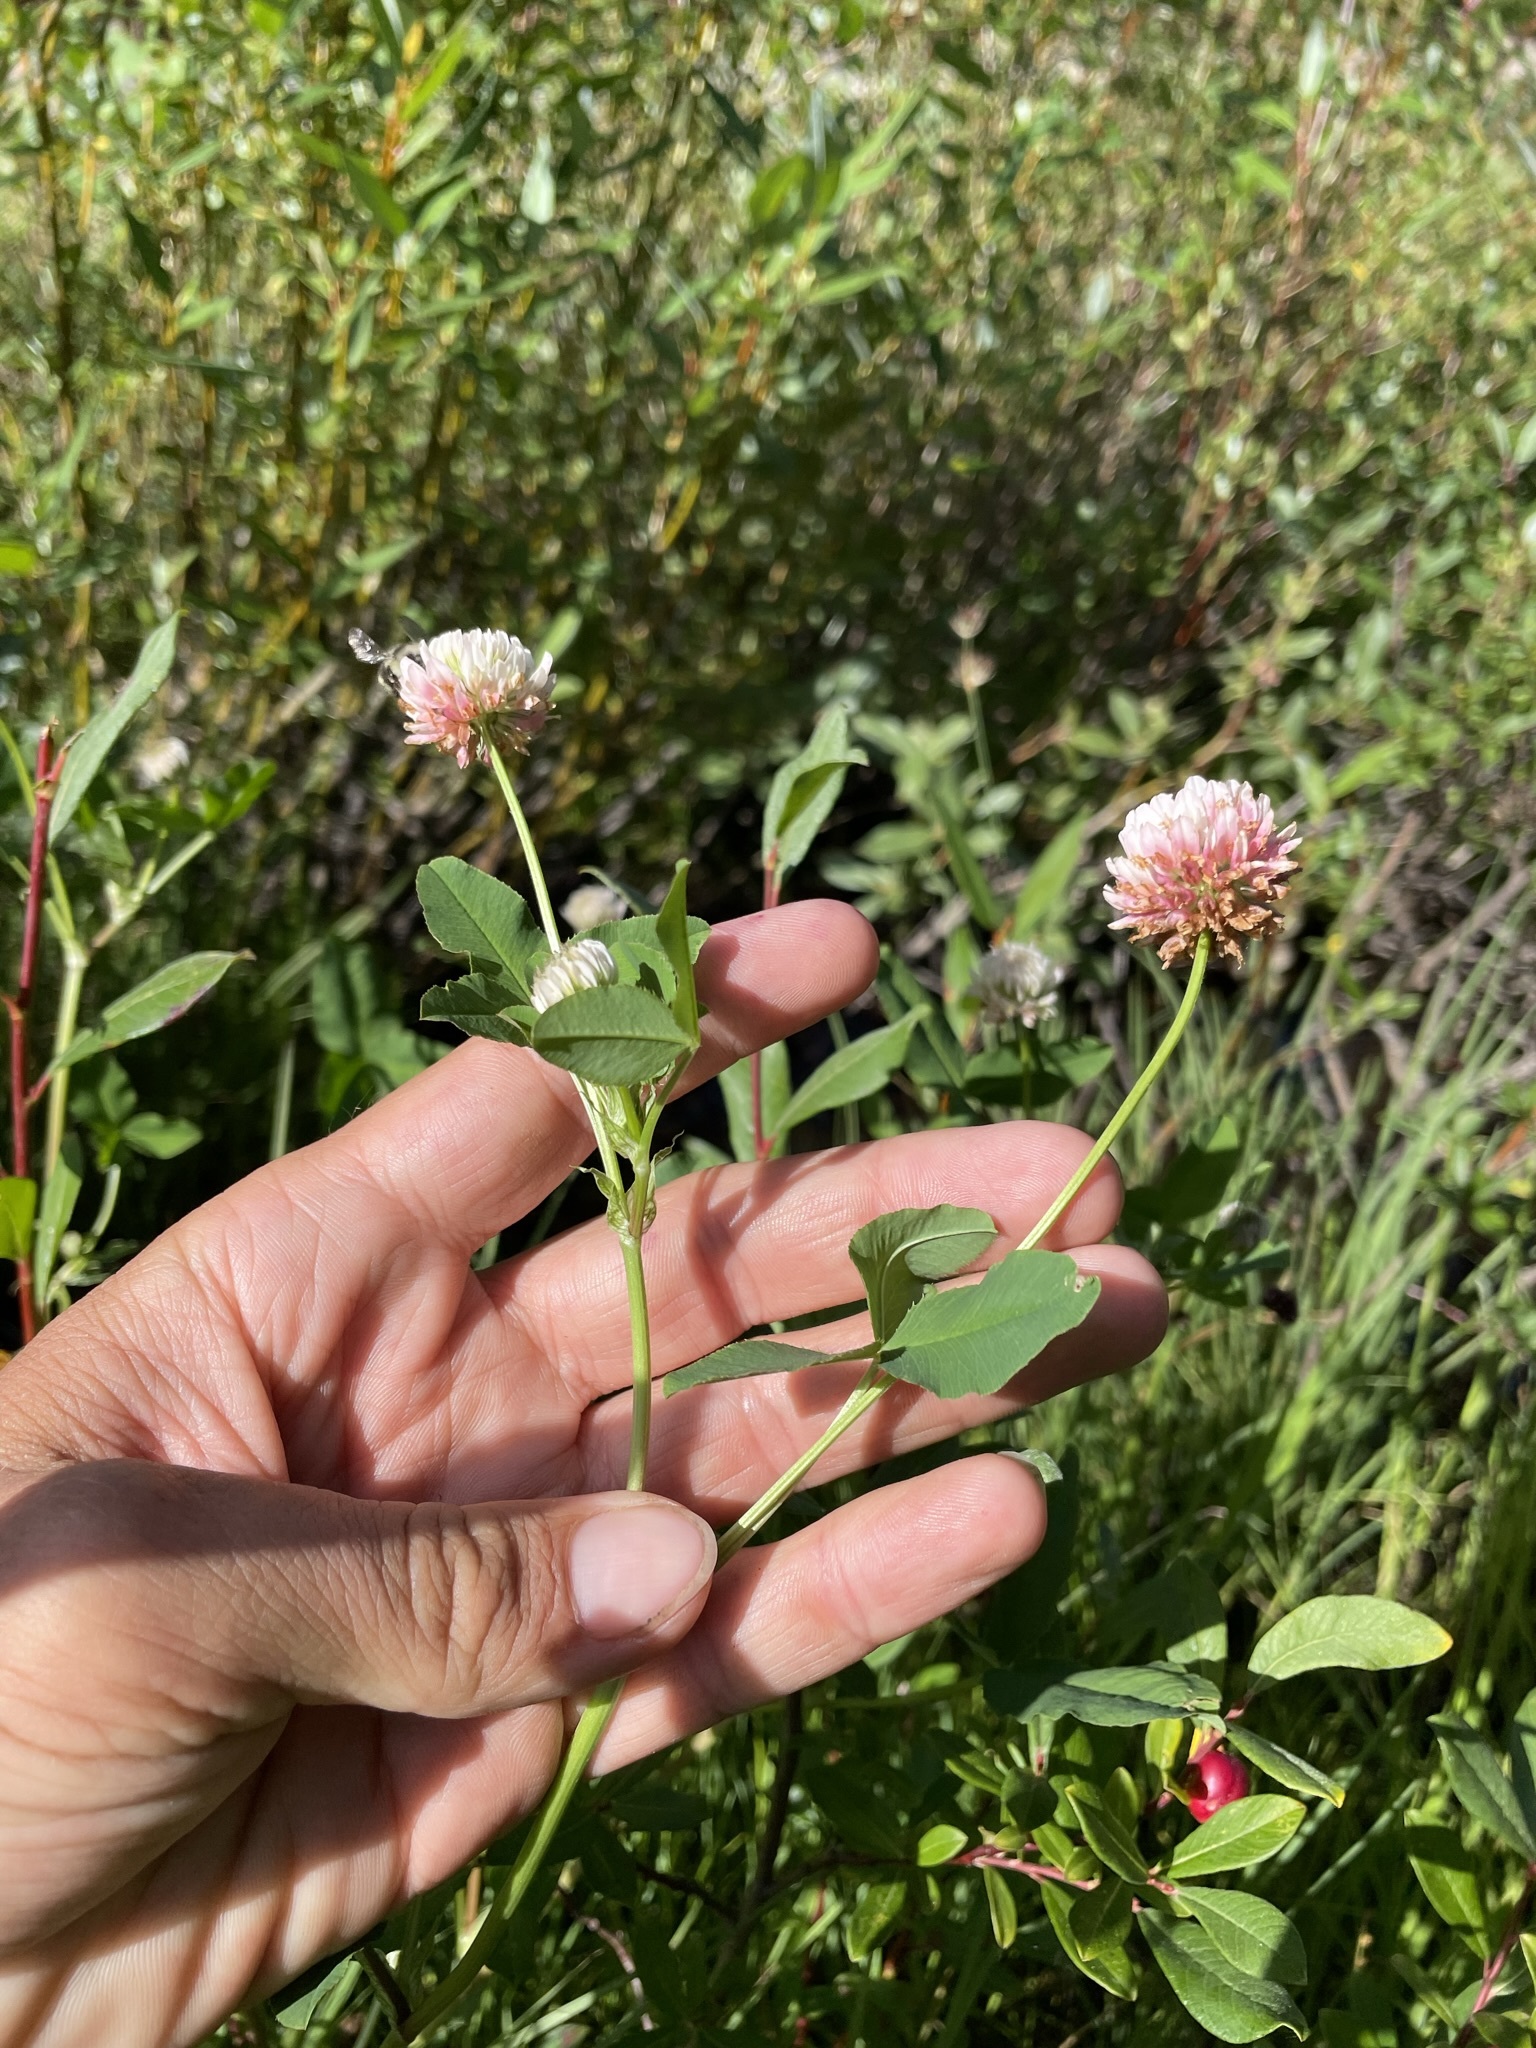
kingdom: Plantae
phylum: Tracheophyta
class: Magnoliopsida
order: Fabales
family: Fabaceae
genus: Trifolium
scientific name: Trifolium hybridum
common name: Alsike clover
